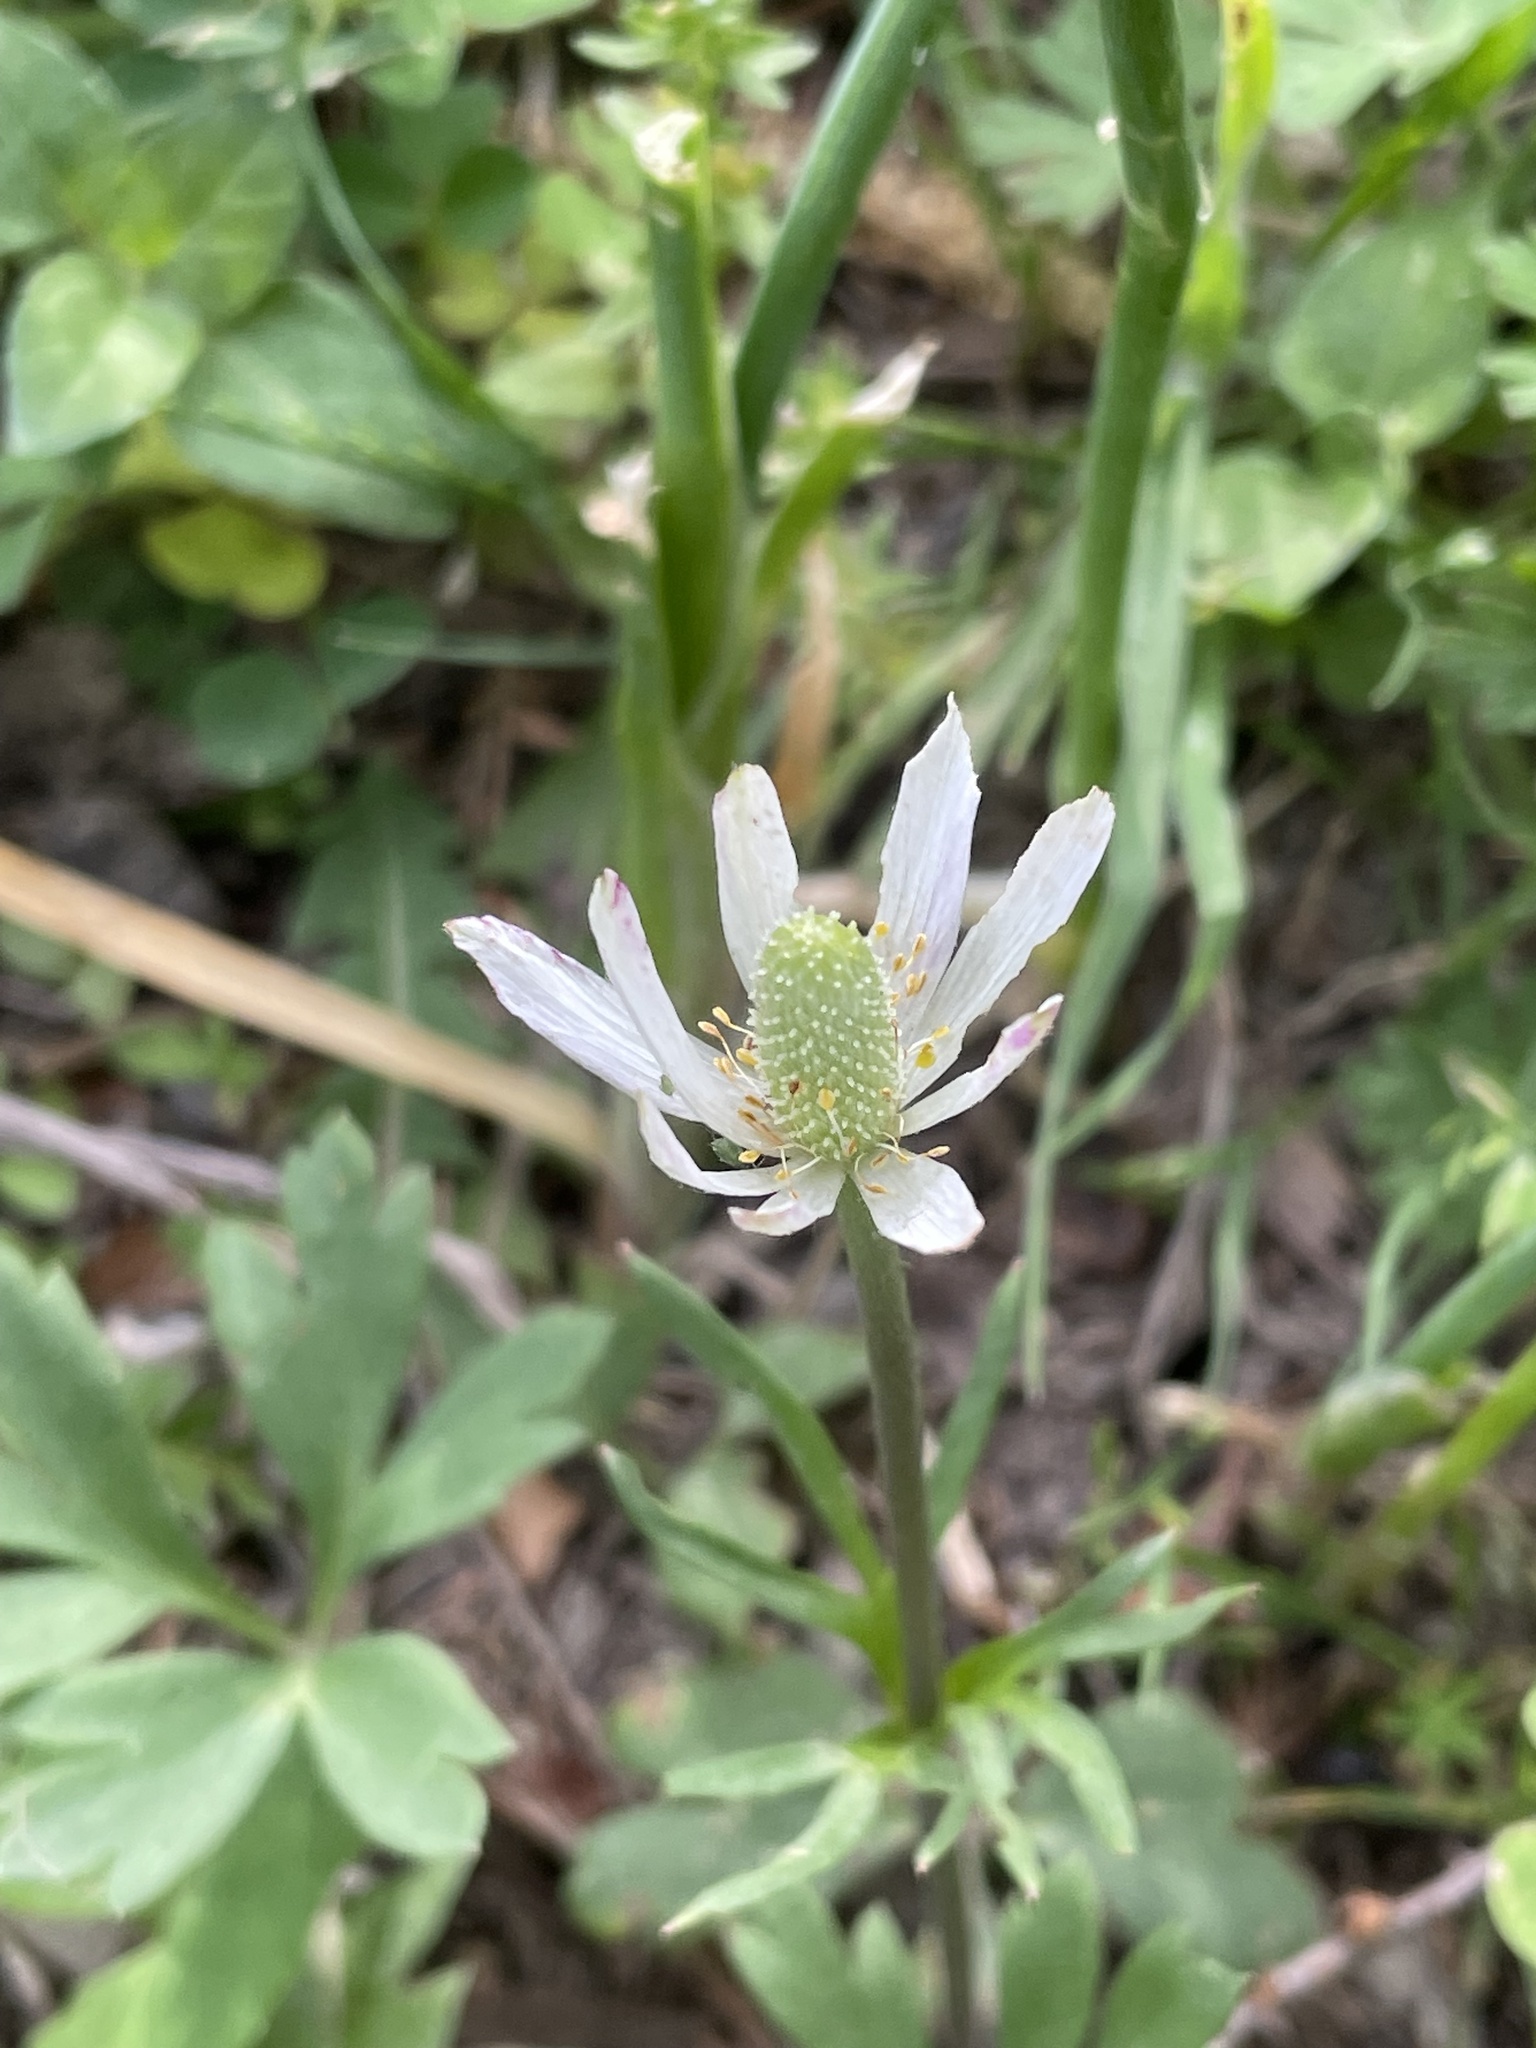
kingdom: Plantae
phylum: Tracheophyta
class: Magnoliopsida
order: Ranunculales
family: Ranunculaceae
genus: Anemone
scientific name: Anemone berlandieri
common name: Ten-petal anemone
